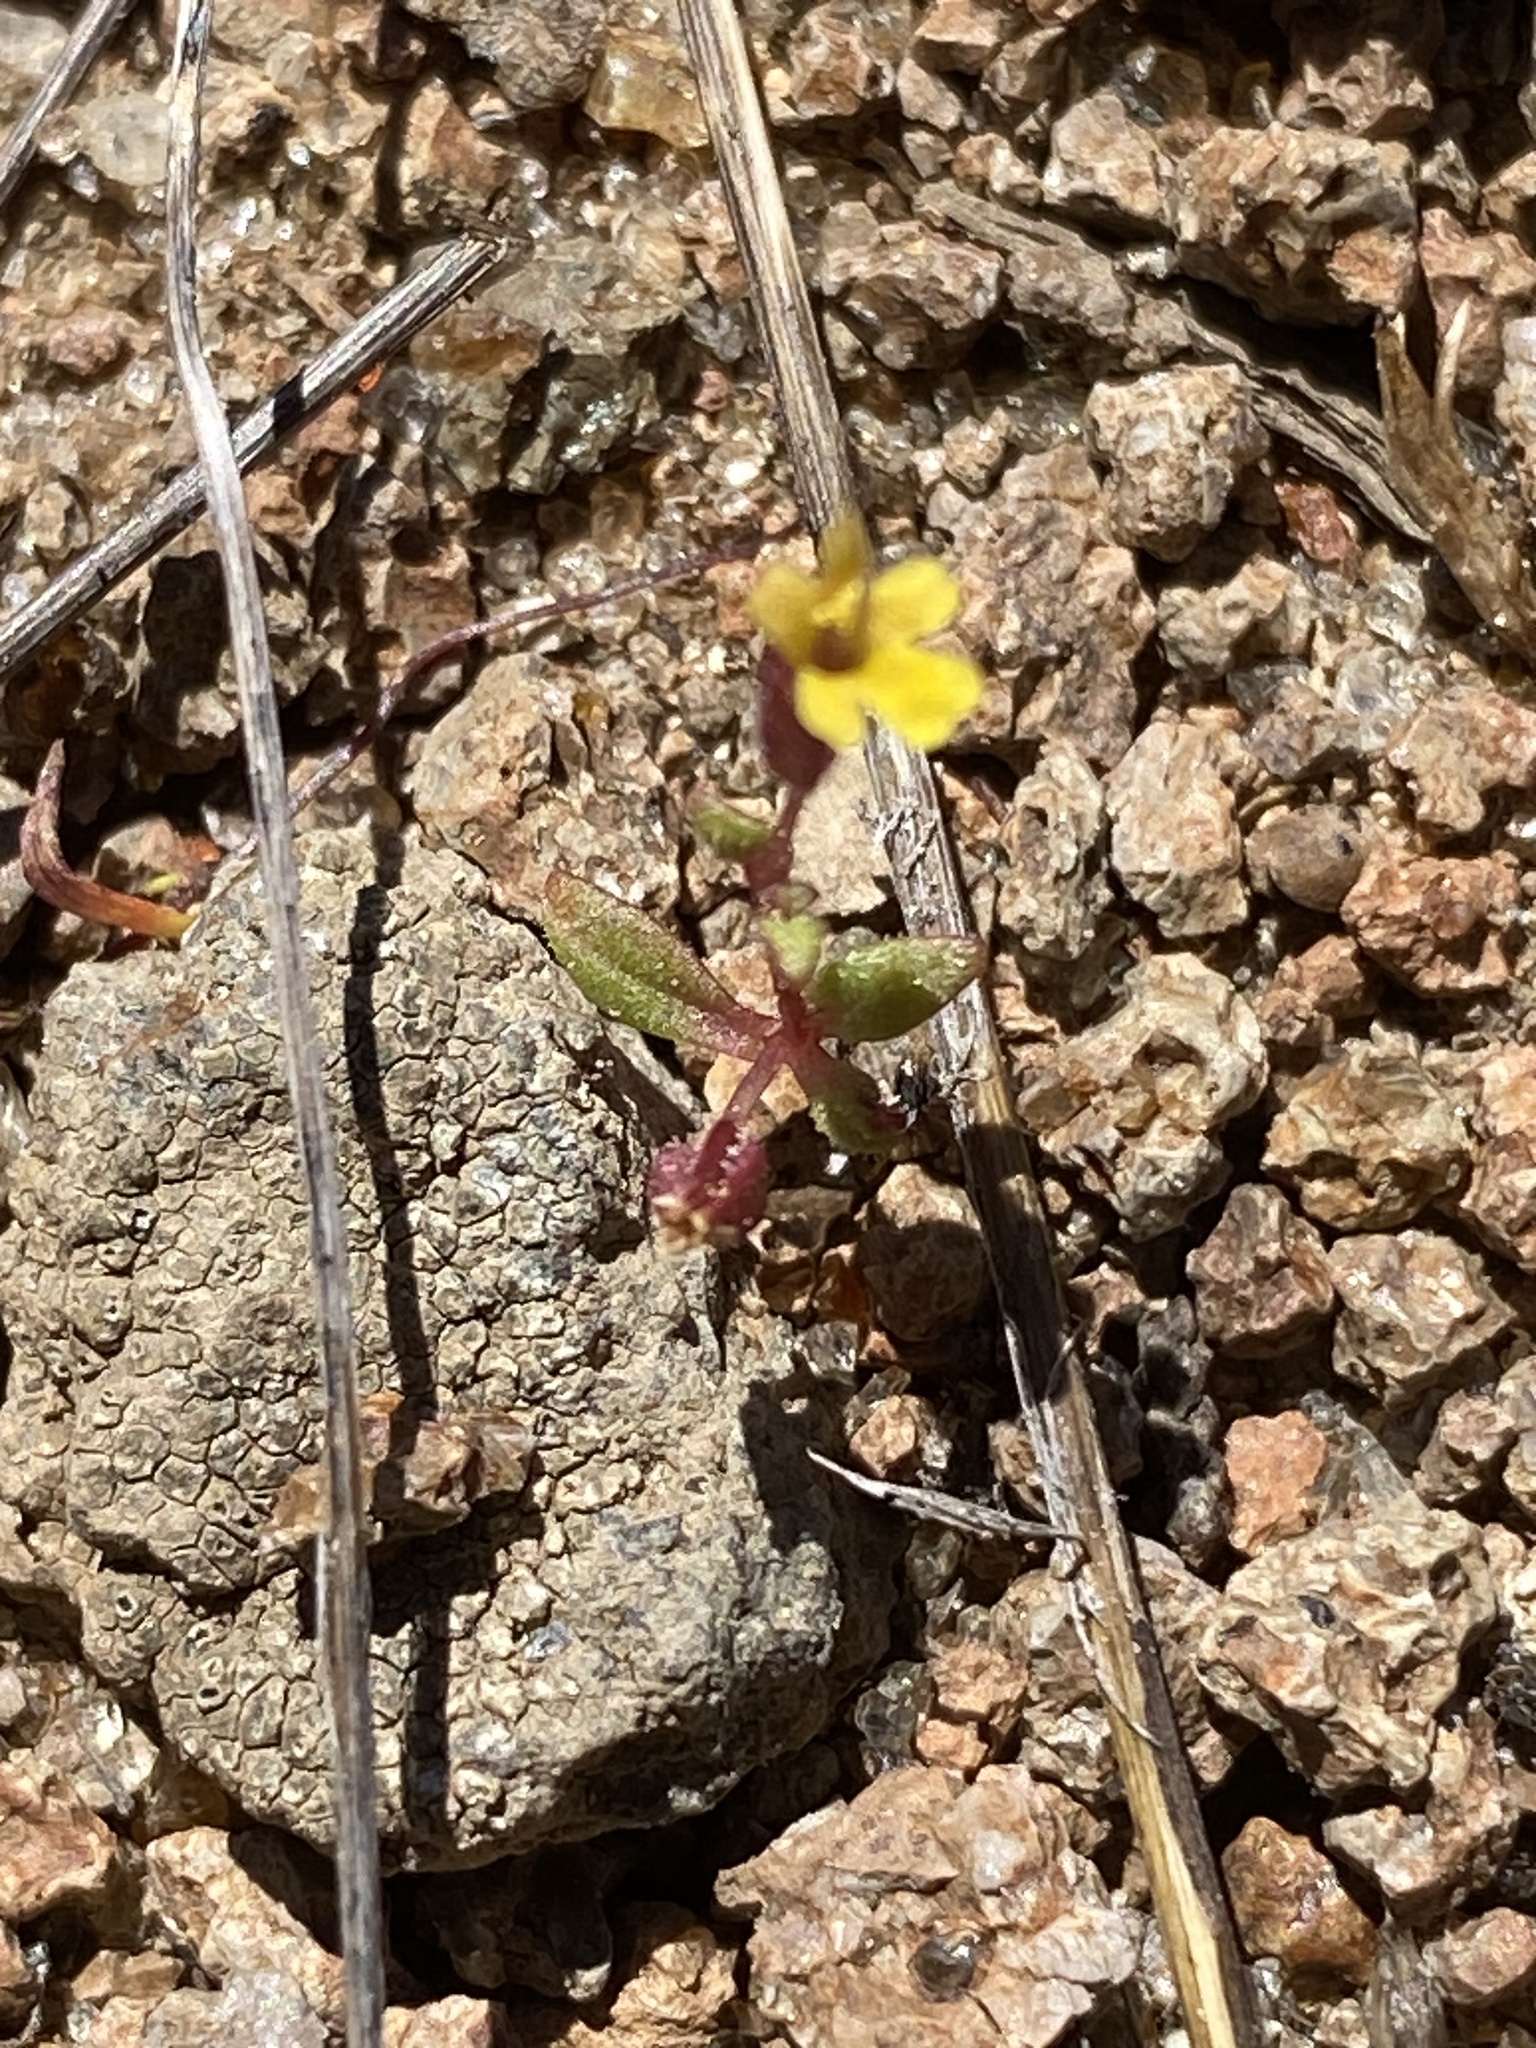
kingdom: Plantae
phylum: Tracheophyta
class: Magnoliopsida
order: Lamiales
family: Phrymaceae
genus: Erythranthe
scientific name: Erythranthe suksdorfii
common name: Suksdorf's monkeyflower
